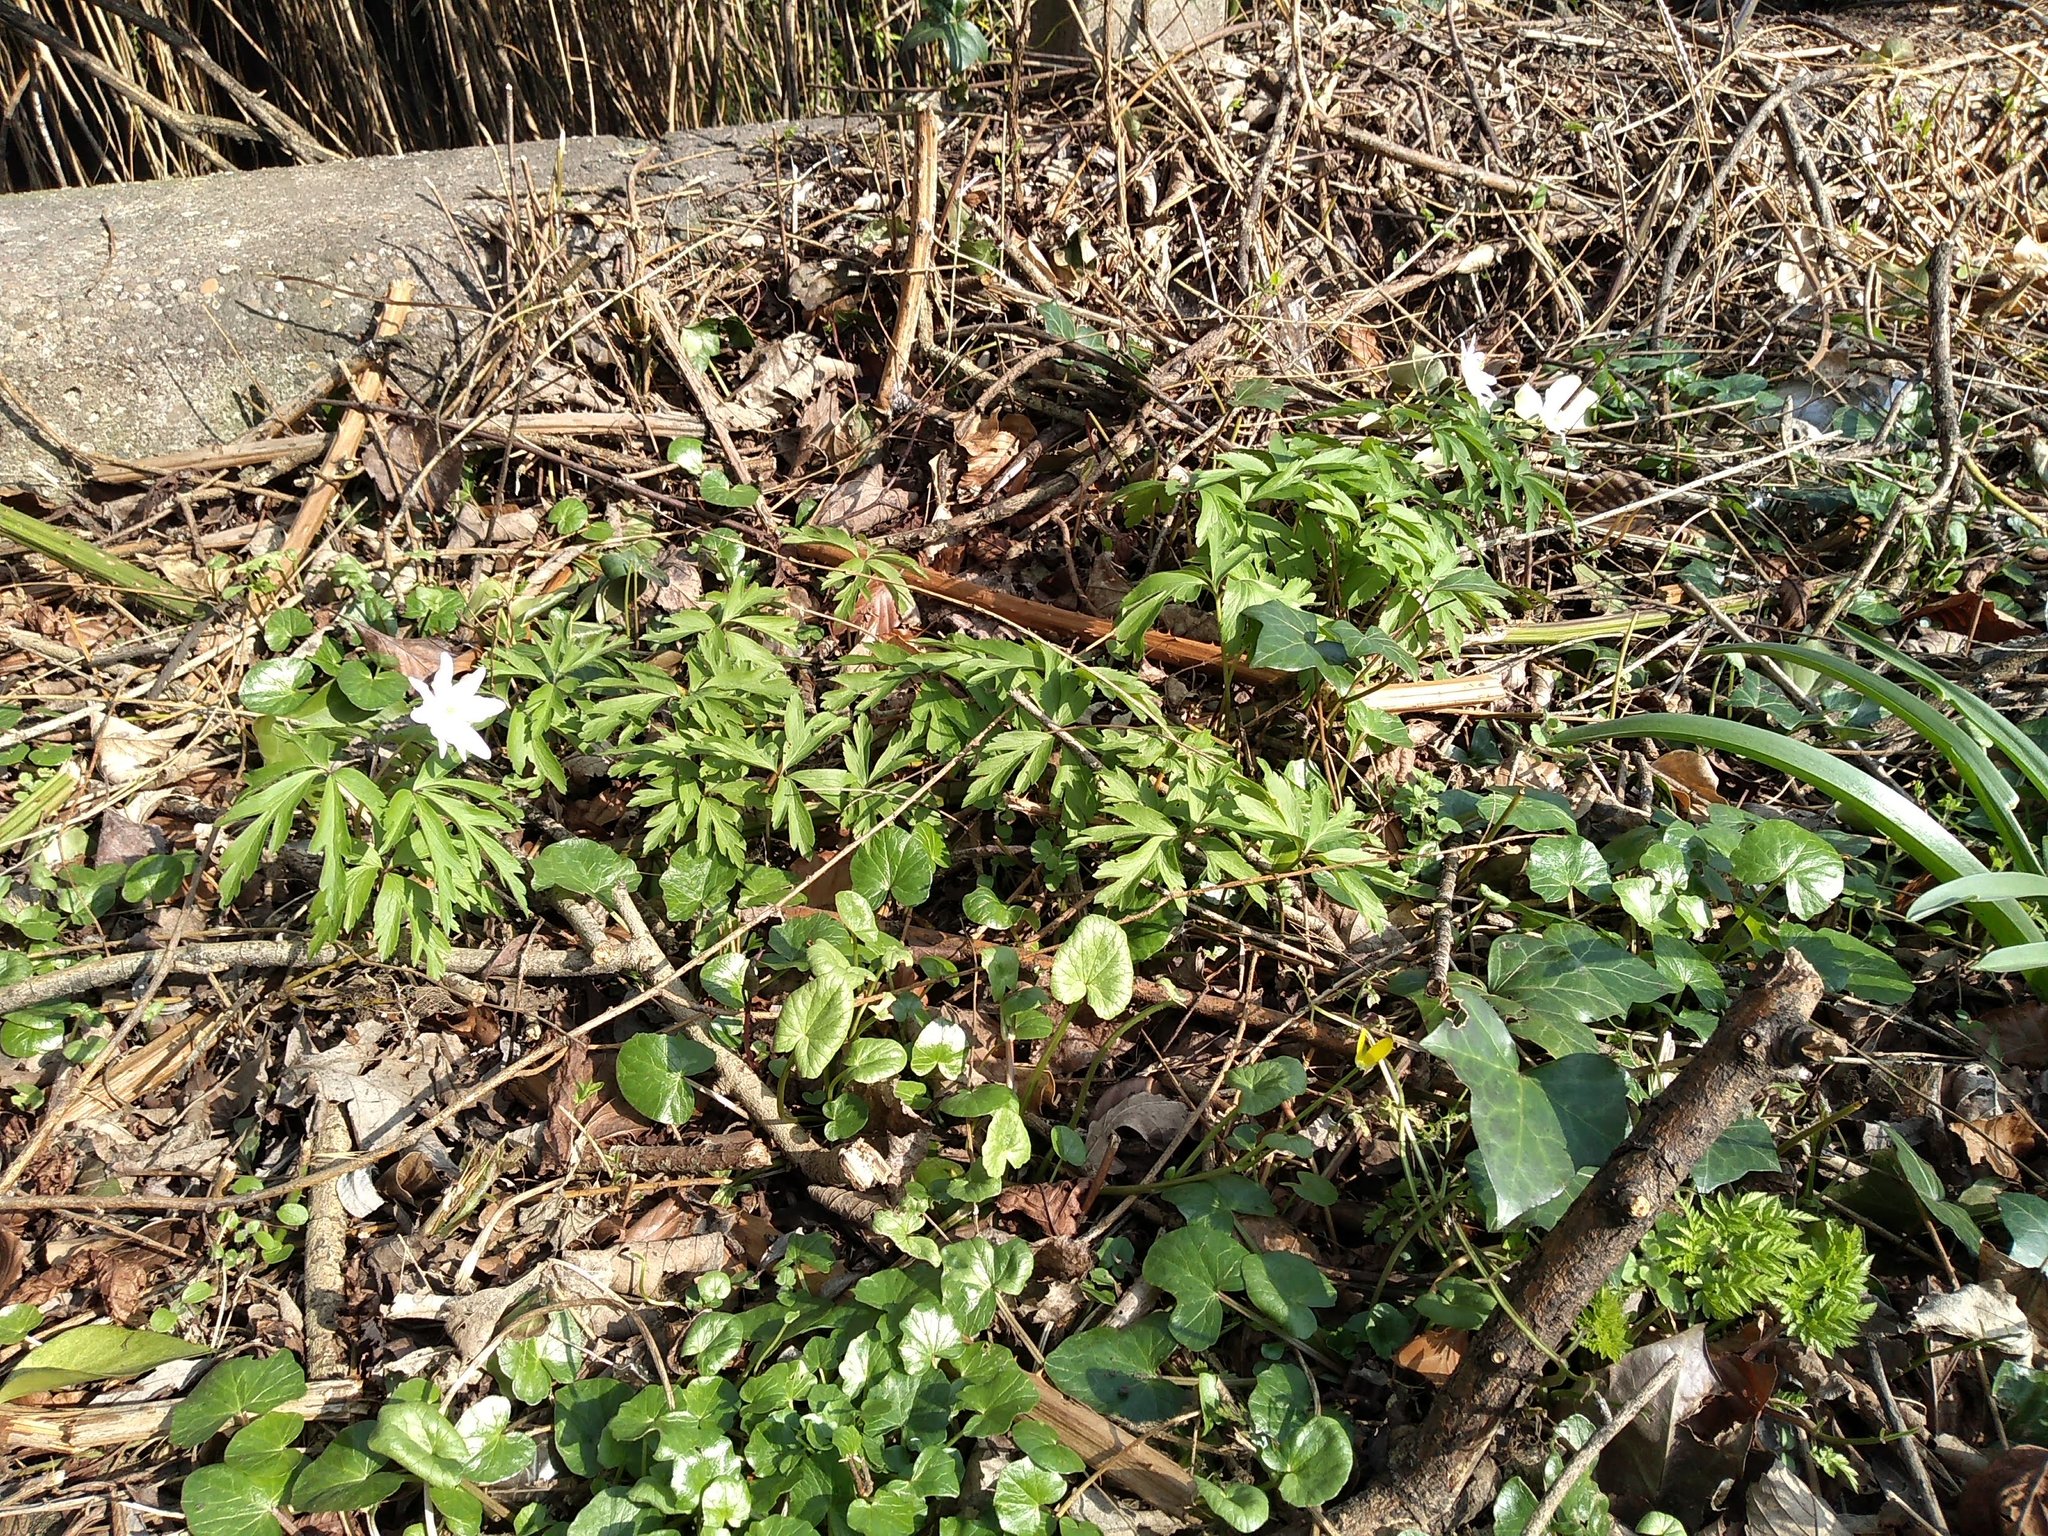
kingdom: Plantae
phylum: Tracheophyta
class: Magnoliopsida
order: Ranunculales
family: Ranunculaceae
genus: Anemone
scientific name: Anemone nemorosa
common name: Wood anemone
